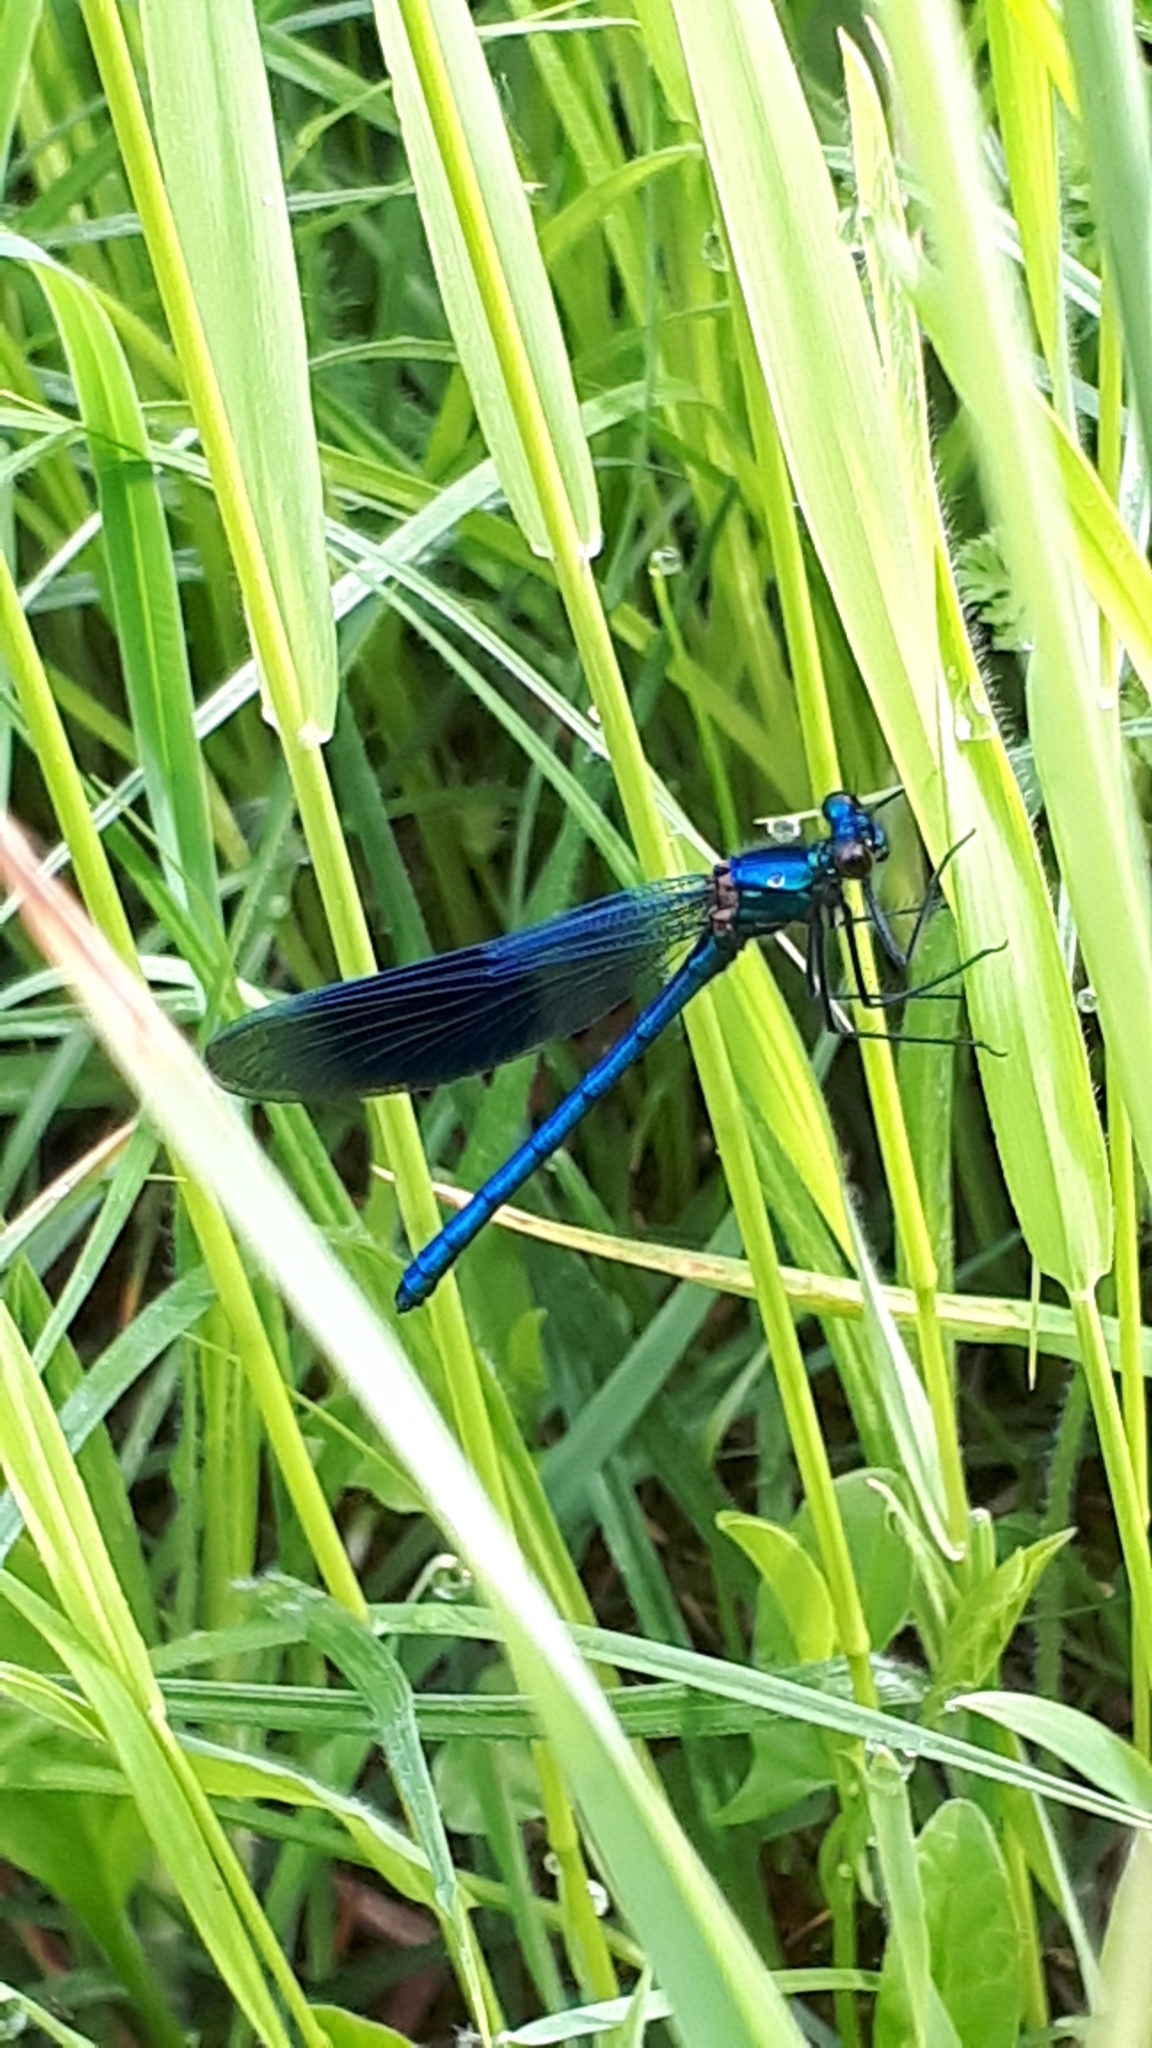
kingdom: Animalia
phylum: Arthropoda
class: Insecta
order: Odonata
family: Calopterygidae
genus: Calopteryx
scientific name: Calopteryx splendens
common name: Banded demoiselle
